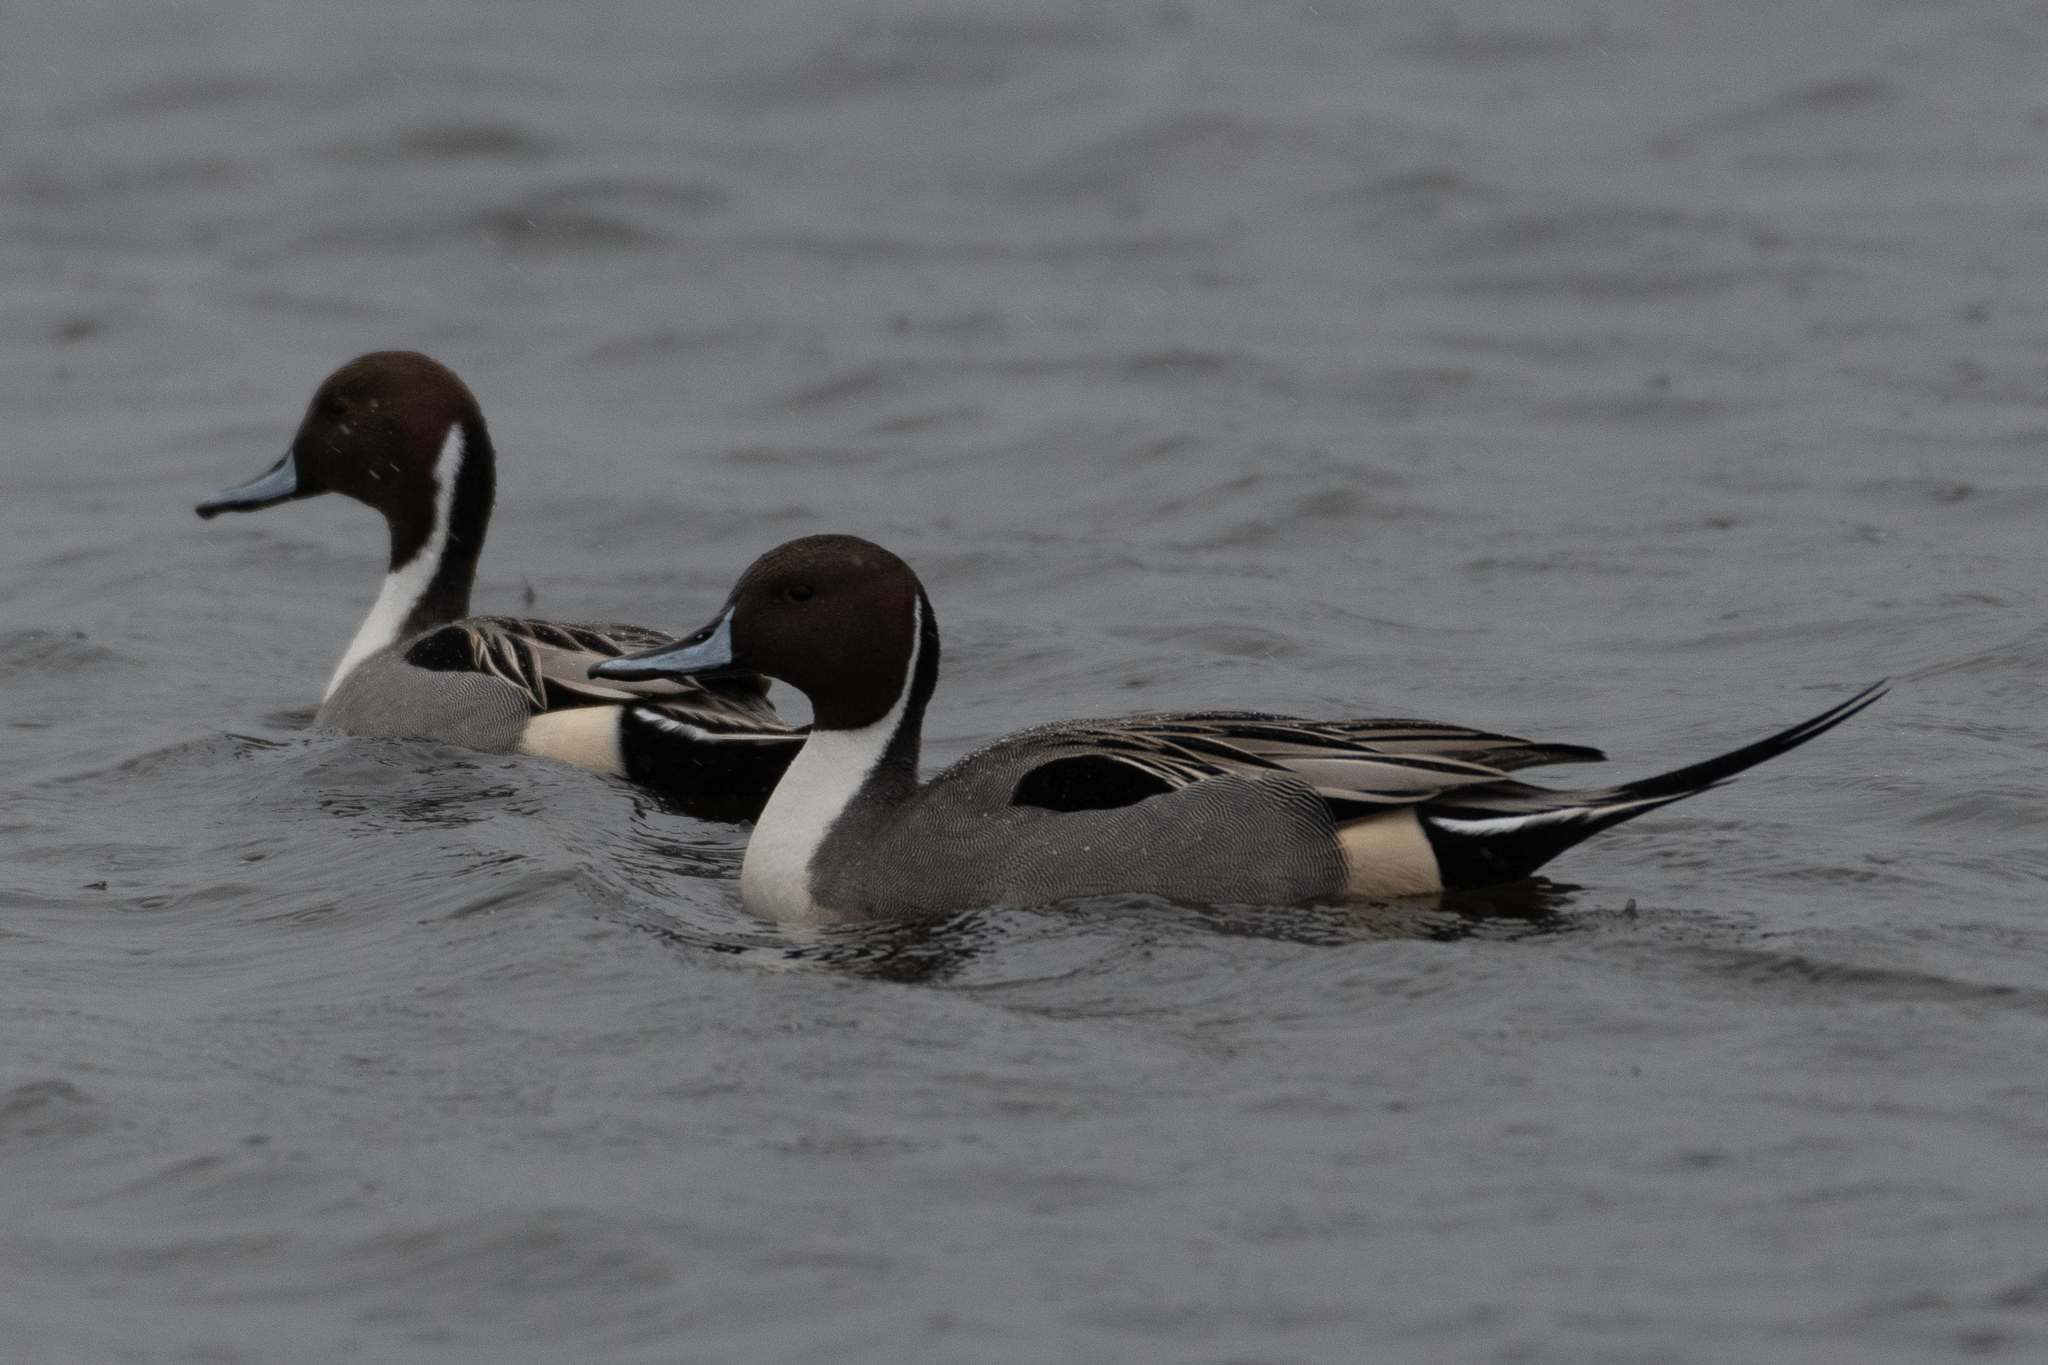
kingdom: Animalia
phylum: Chordata
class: Aves
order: Anseriformes
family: Anatidae
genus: Anas
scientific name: Anas acuta
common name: Northern pintail
